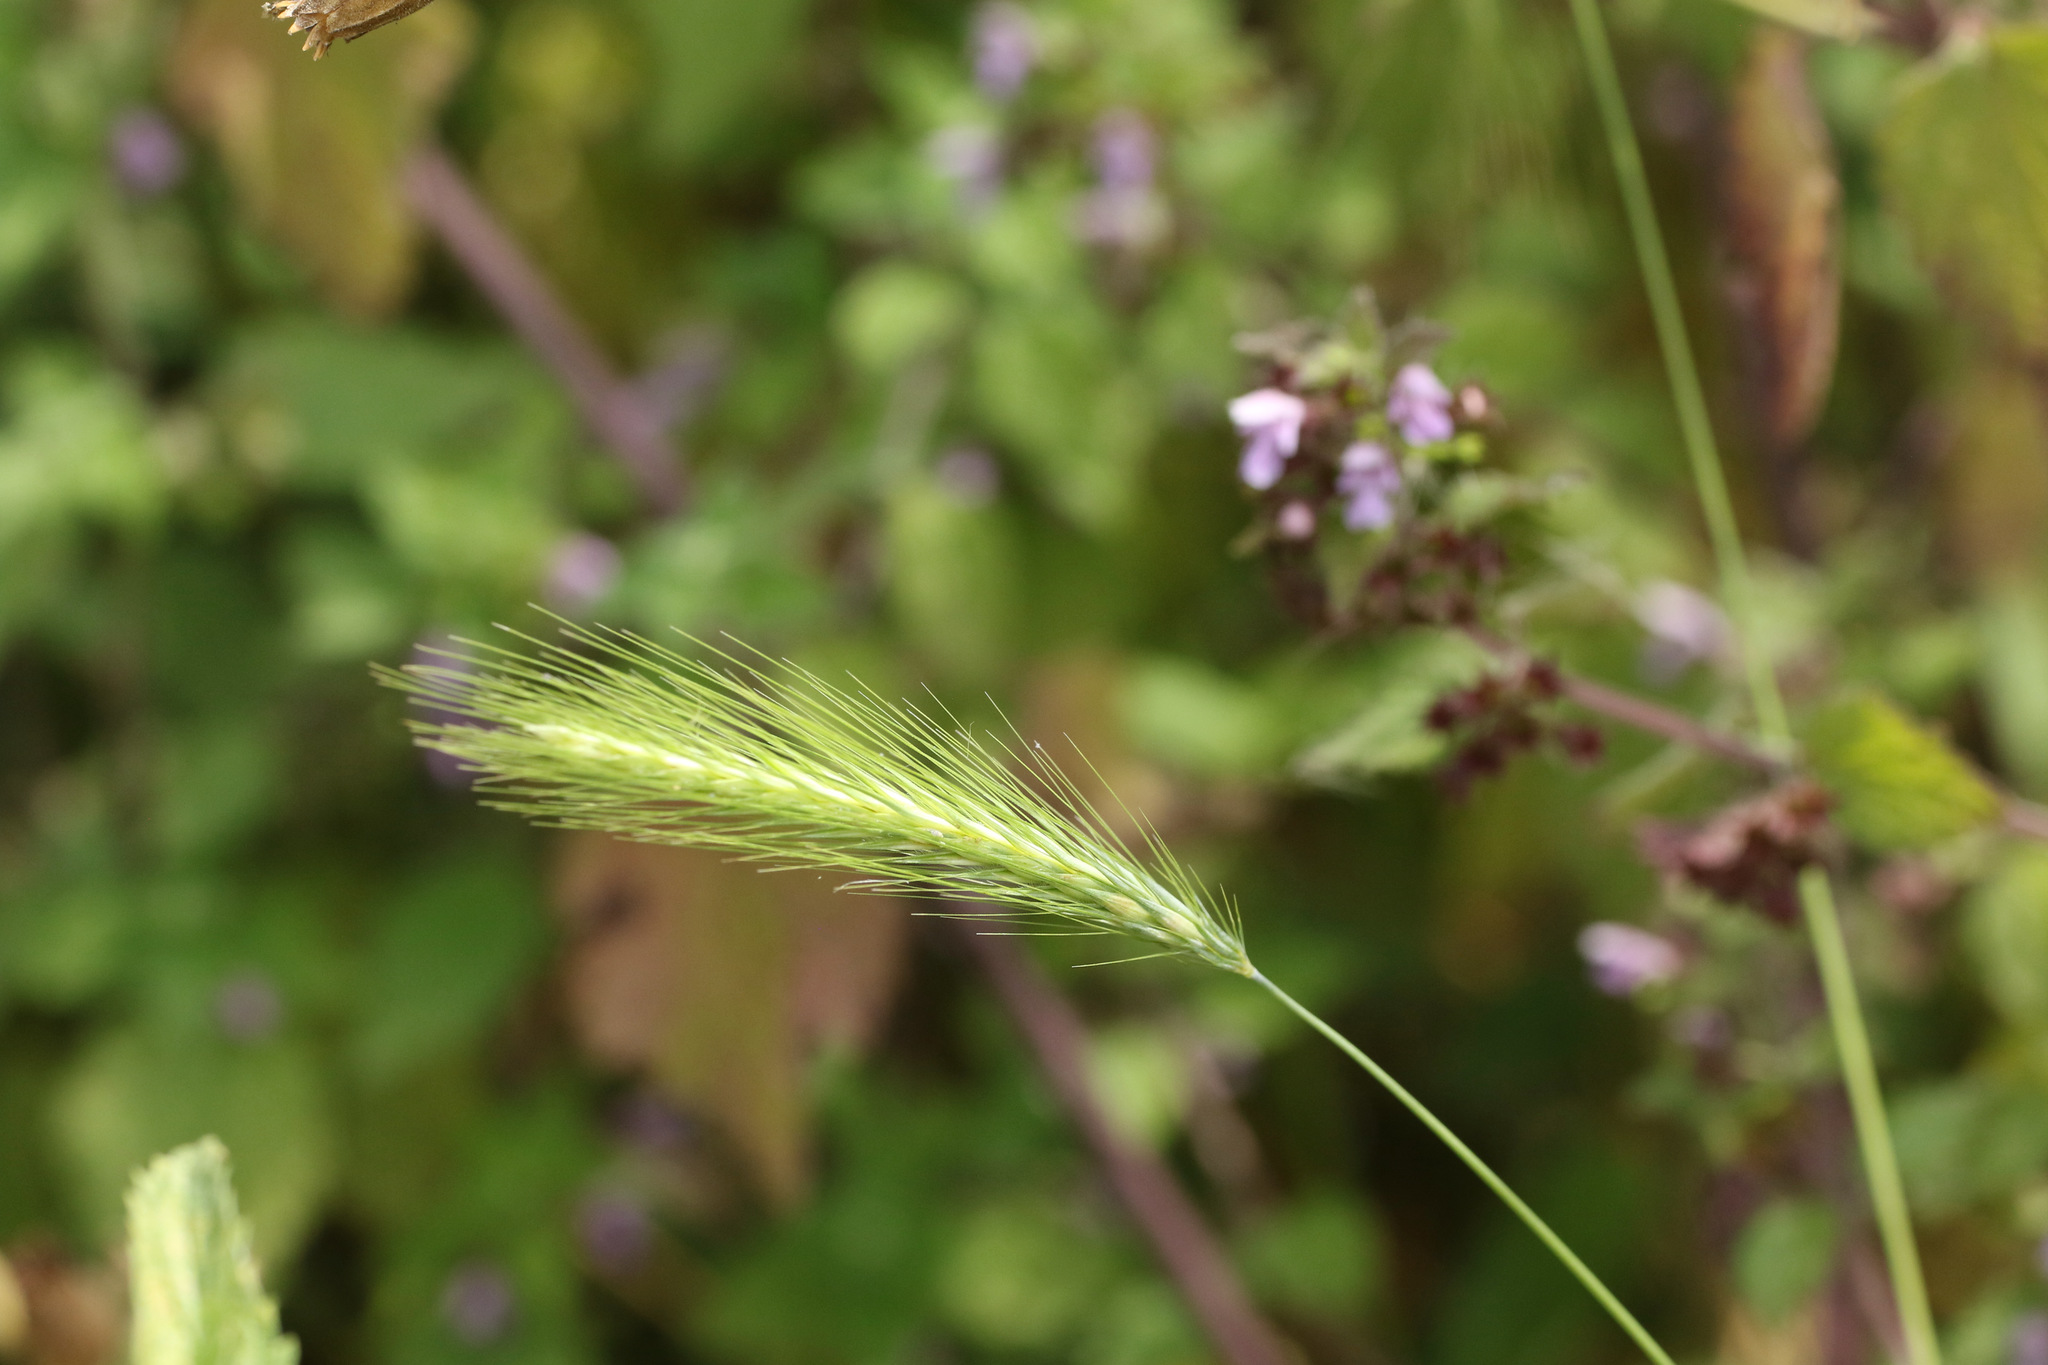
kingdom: Plantae
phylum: Tracheophyta
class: Liliopsida
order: Poales
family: Poaceae
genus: Hordeum
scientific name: Hordeum murinum
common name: Wall barley
